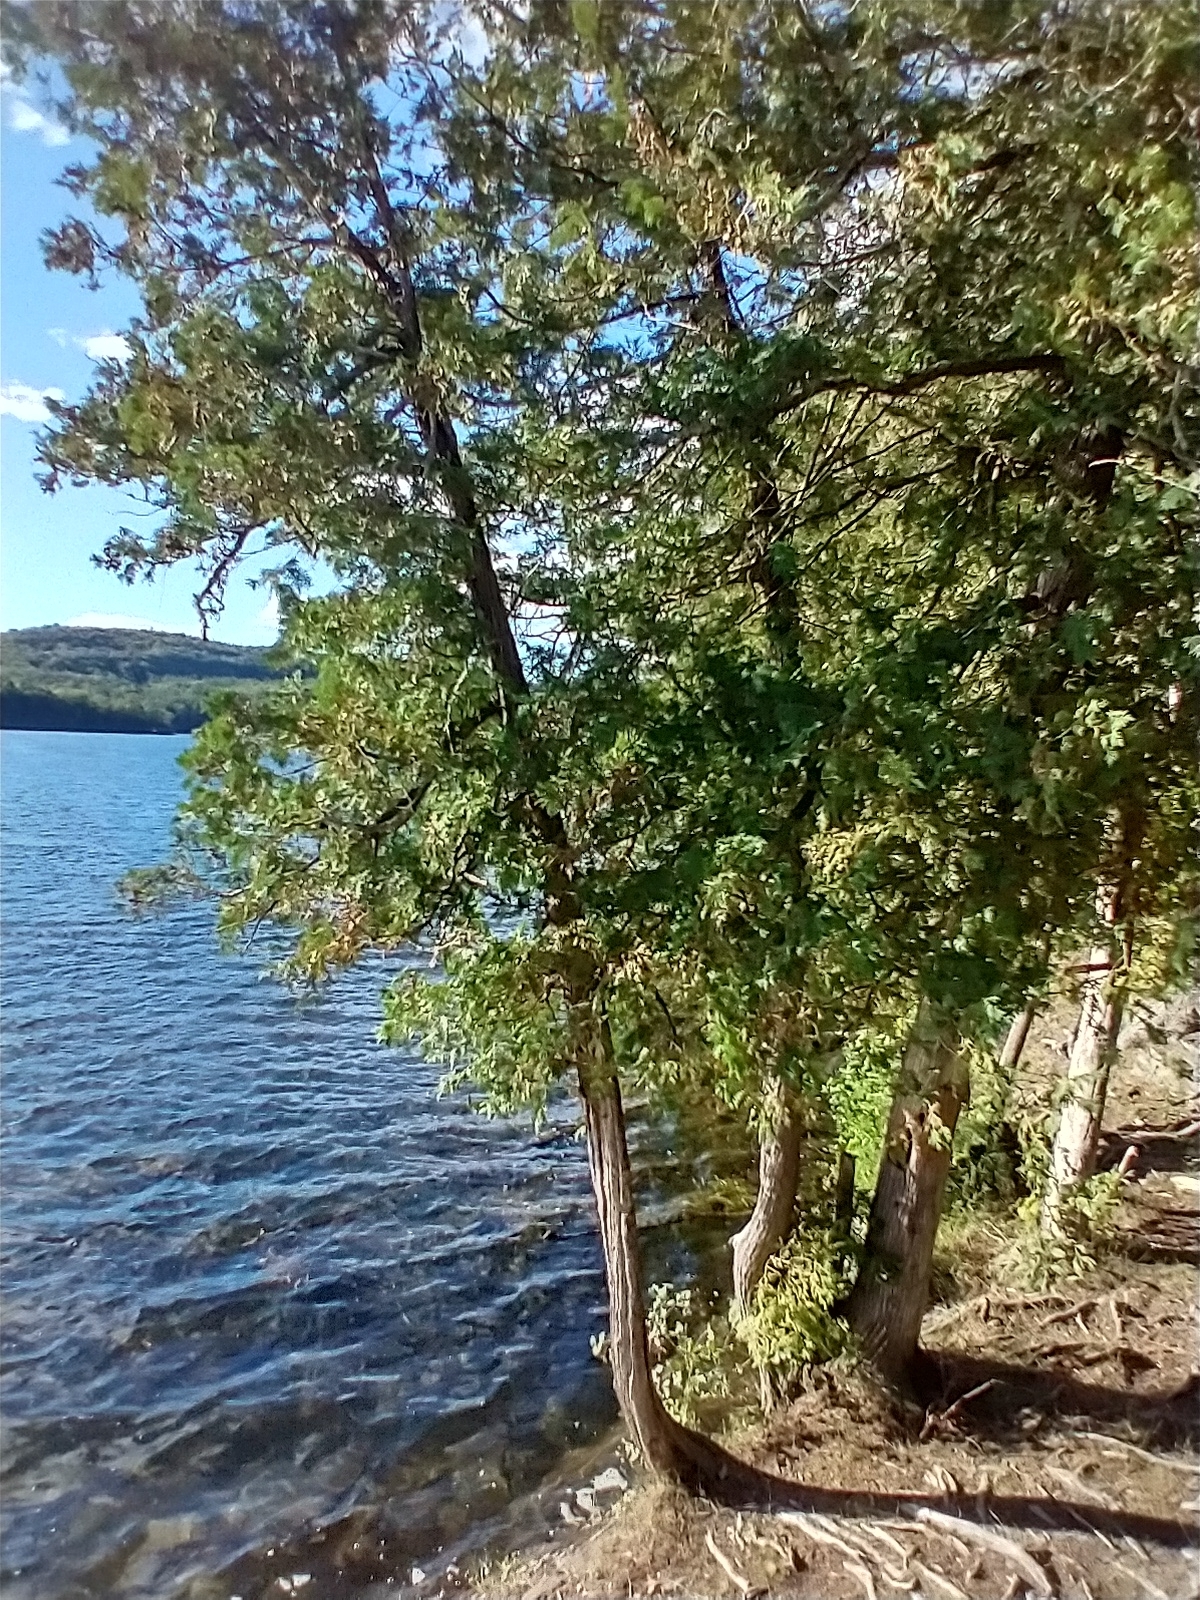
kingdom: Plantae
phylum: Tracheophyta
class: Pinopsida
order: Pinales
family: Cupressaceae
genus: Thuja
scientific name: Thuja occidentalis
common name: Northern white-cedar
